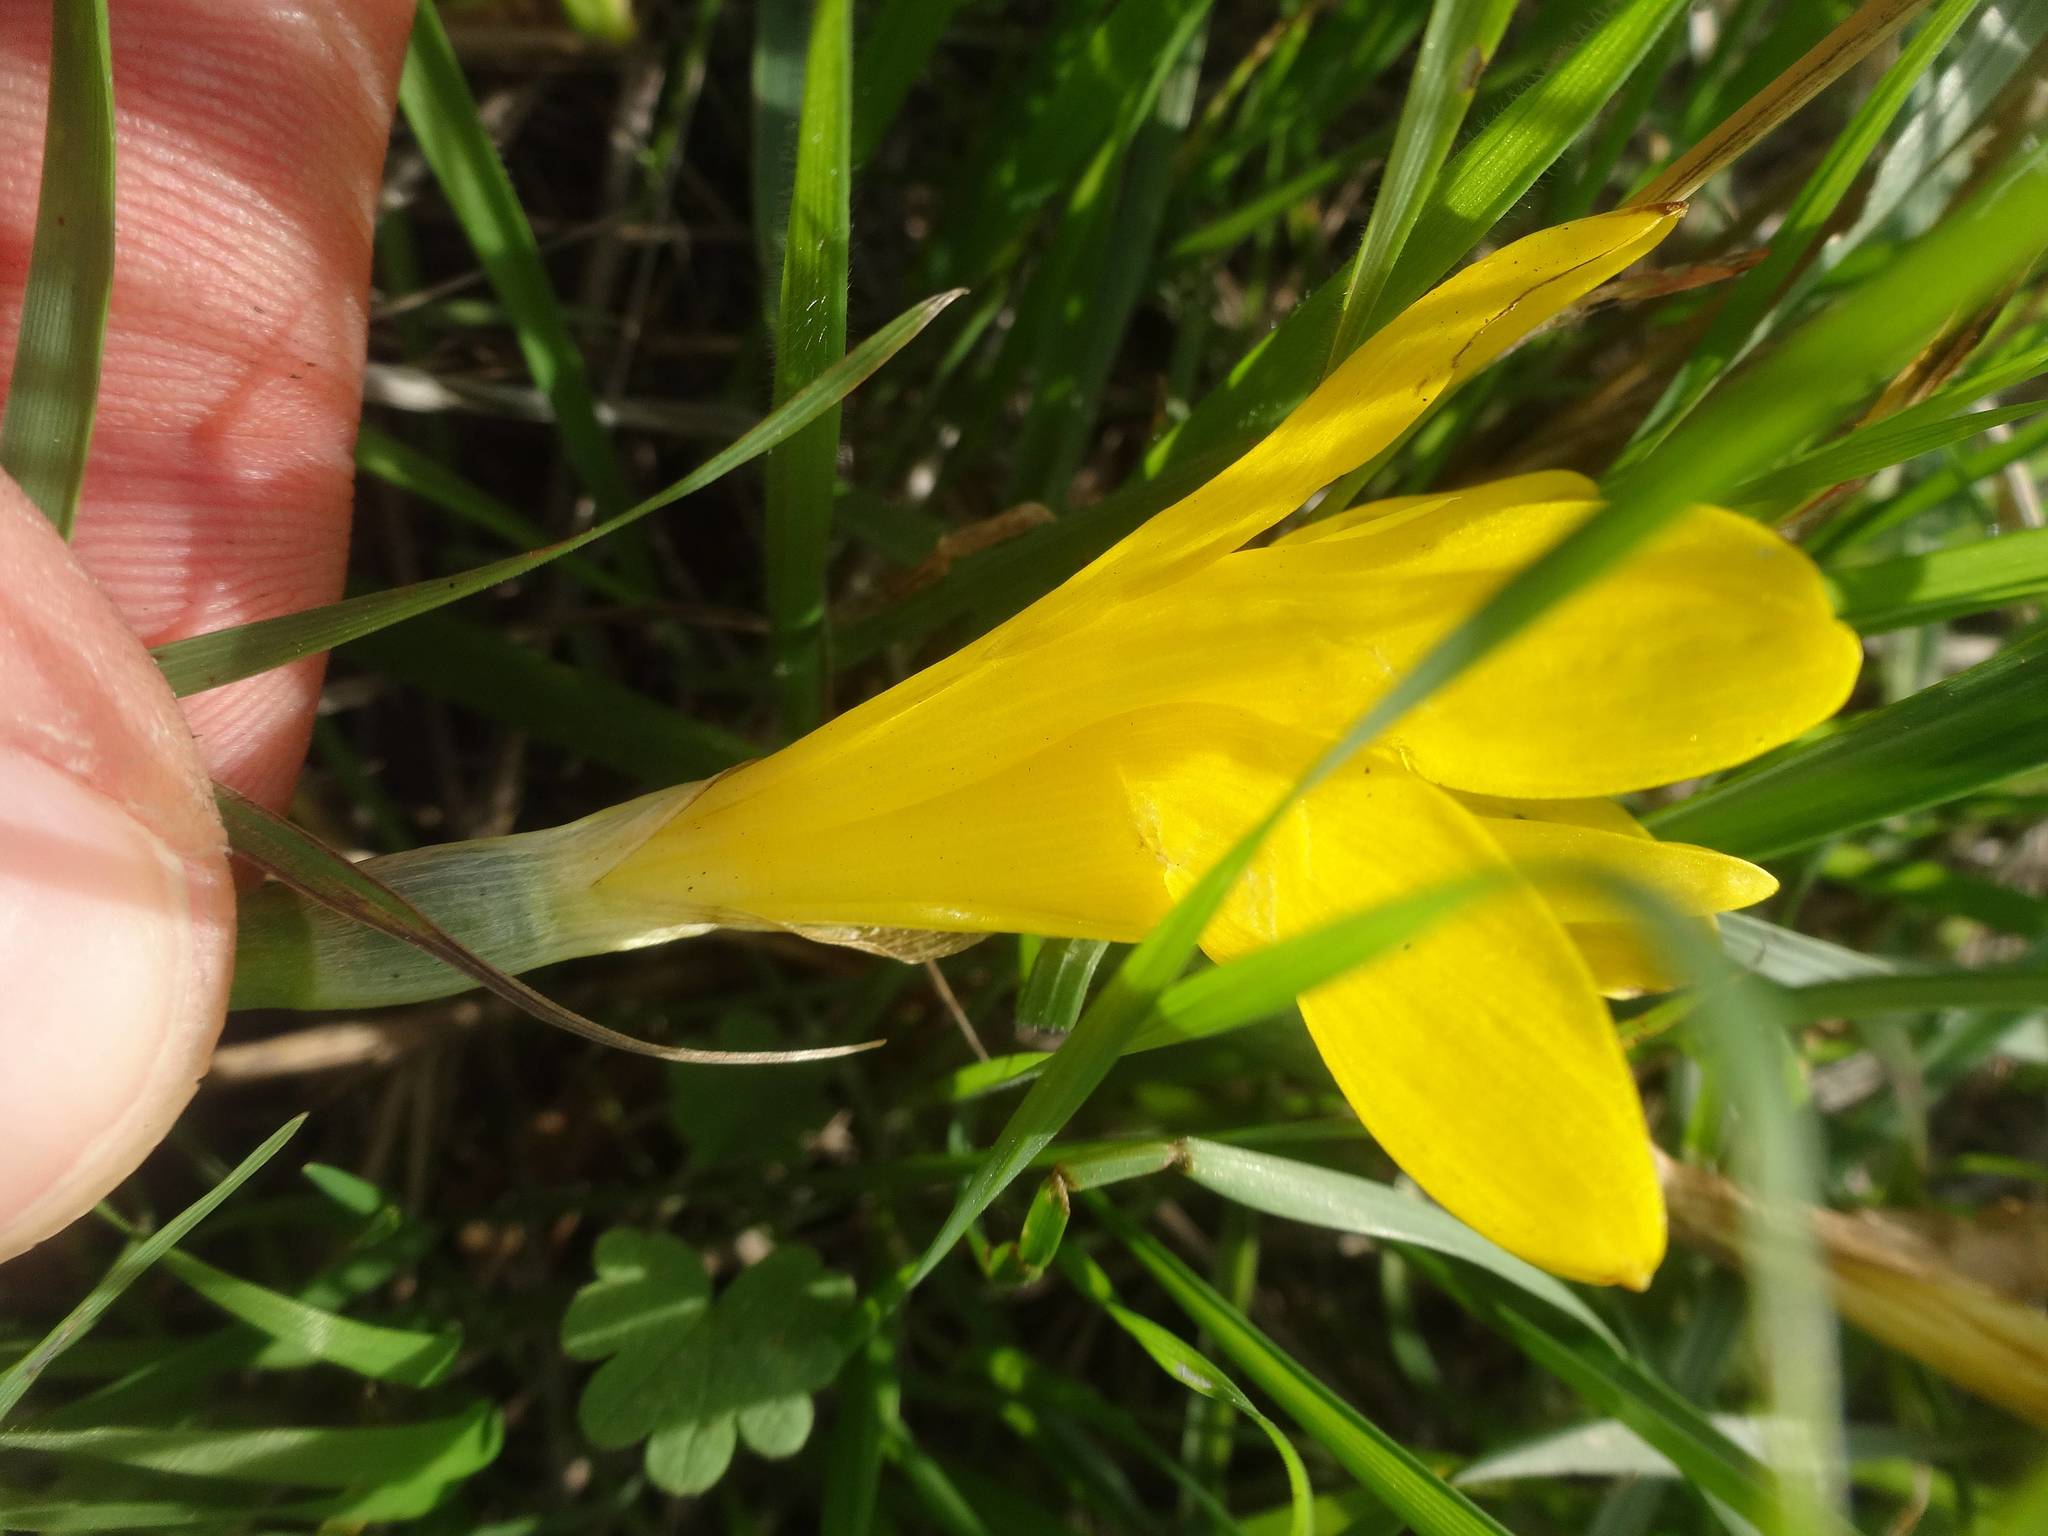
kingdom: Plantae
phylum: Tracheophyta
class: Liliopsida
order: Asparagales
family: Amaryllidaceae
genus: Sternbergia
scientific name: Sternbergia lutea
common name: Winter daffodil
